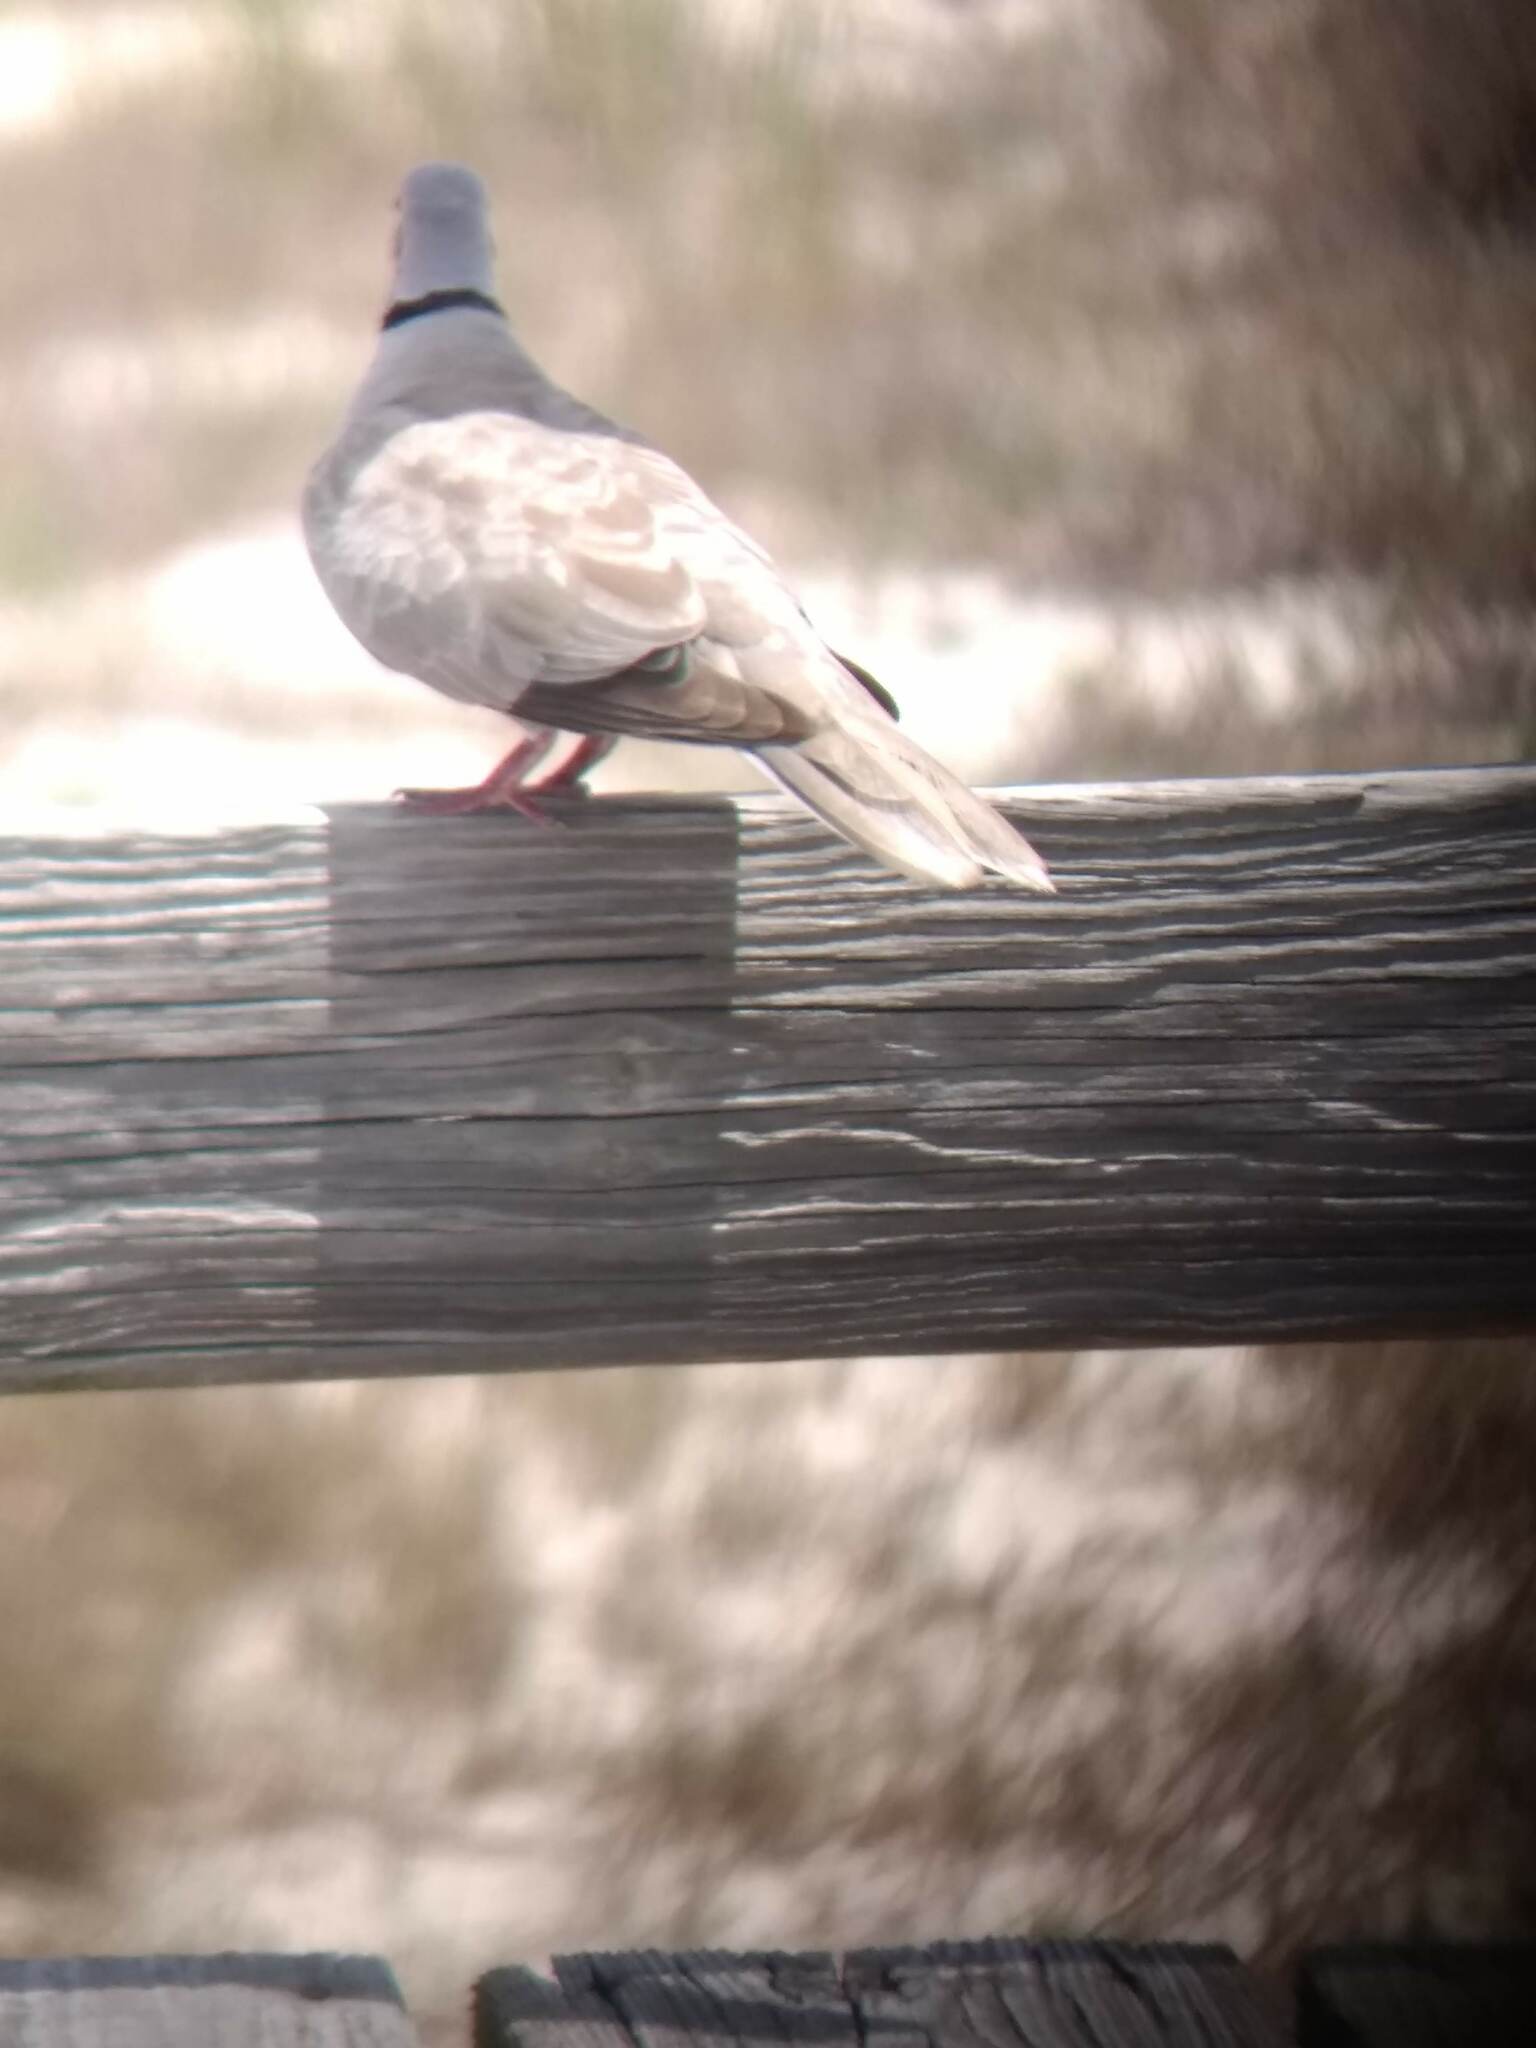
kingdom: Animalia
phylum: Chordata
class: Aves
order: Columbiformes
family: Columbidae
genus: Streptopelia
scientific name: Streptopelia decaocto
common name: Eurasian collared dove
